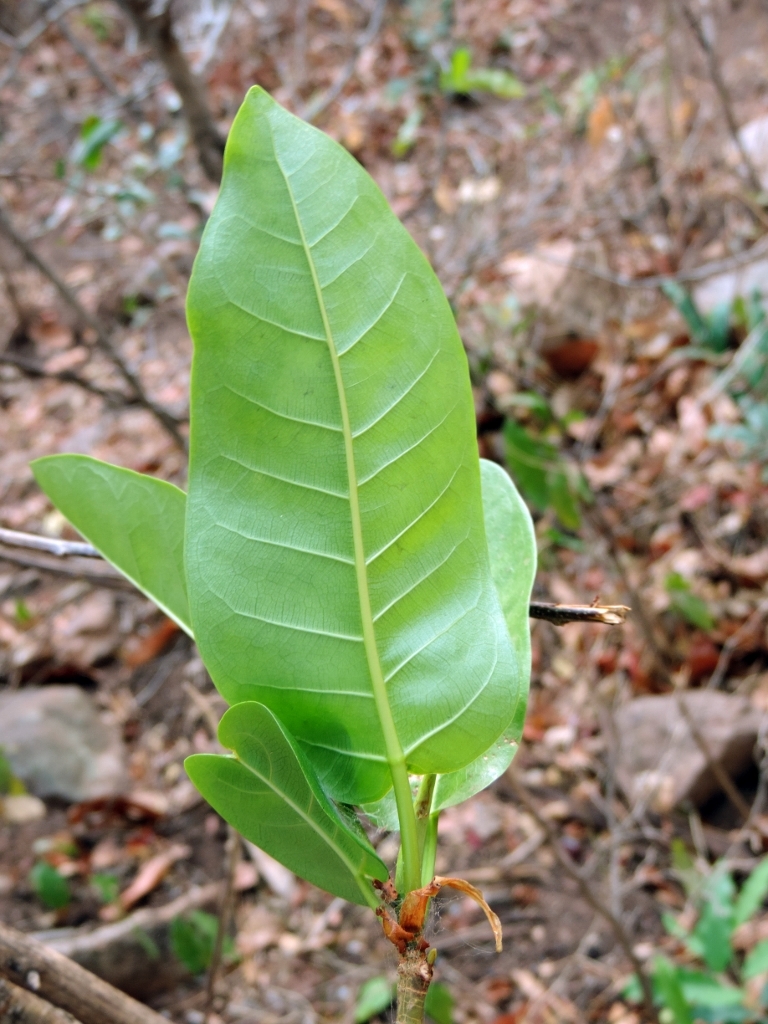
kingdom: Plantae
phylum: Tracheophyta
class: Magnoliopsida
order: Rosales
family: Moraceae
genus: Ficus
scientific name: Ficus sansibarica
